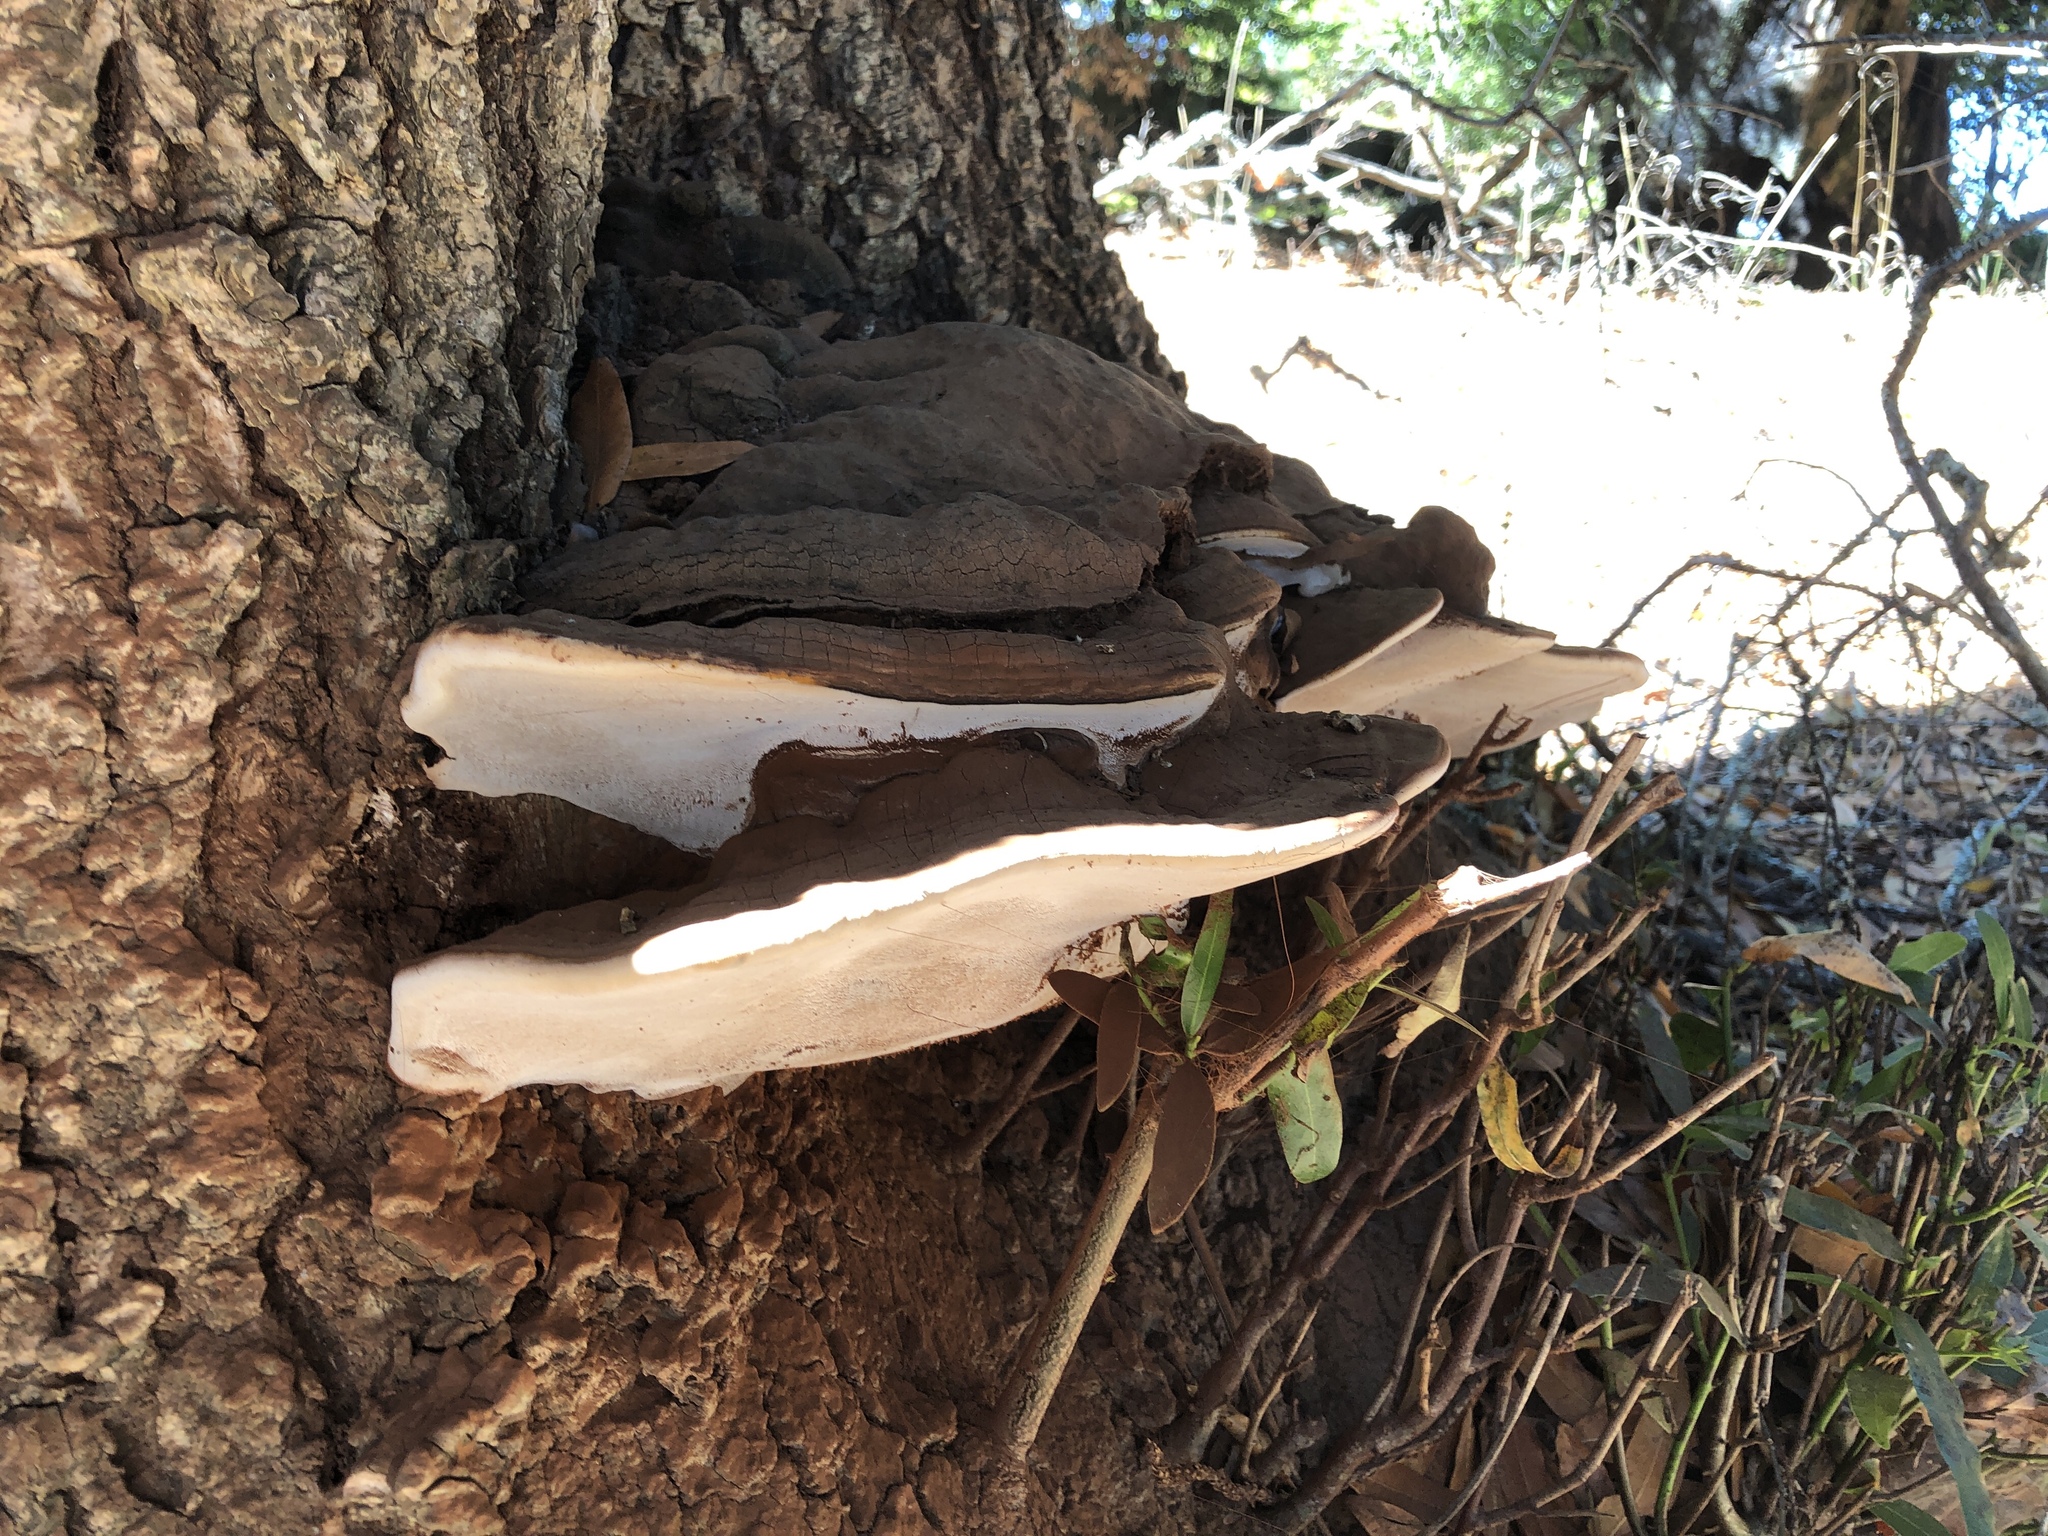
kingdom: Fungi
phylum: Basidiomycota
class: Agaricomycetes
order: Polyporales
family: Polyporaceae
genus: Ganoderma
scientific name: Ganoderma brownii
